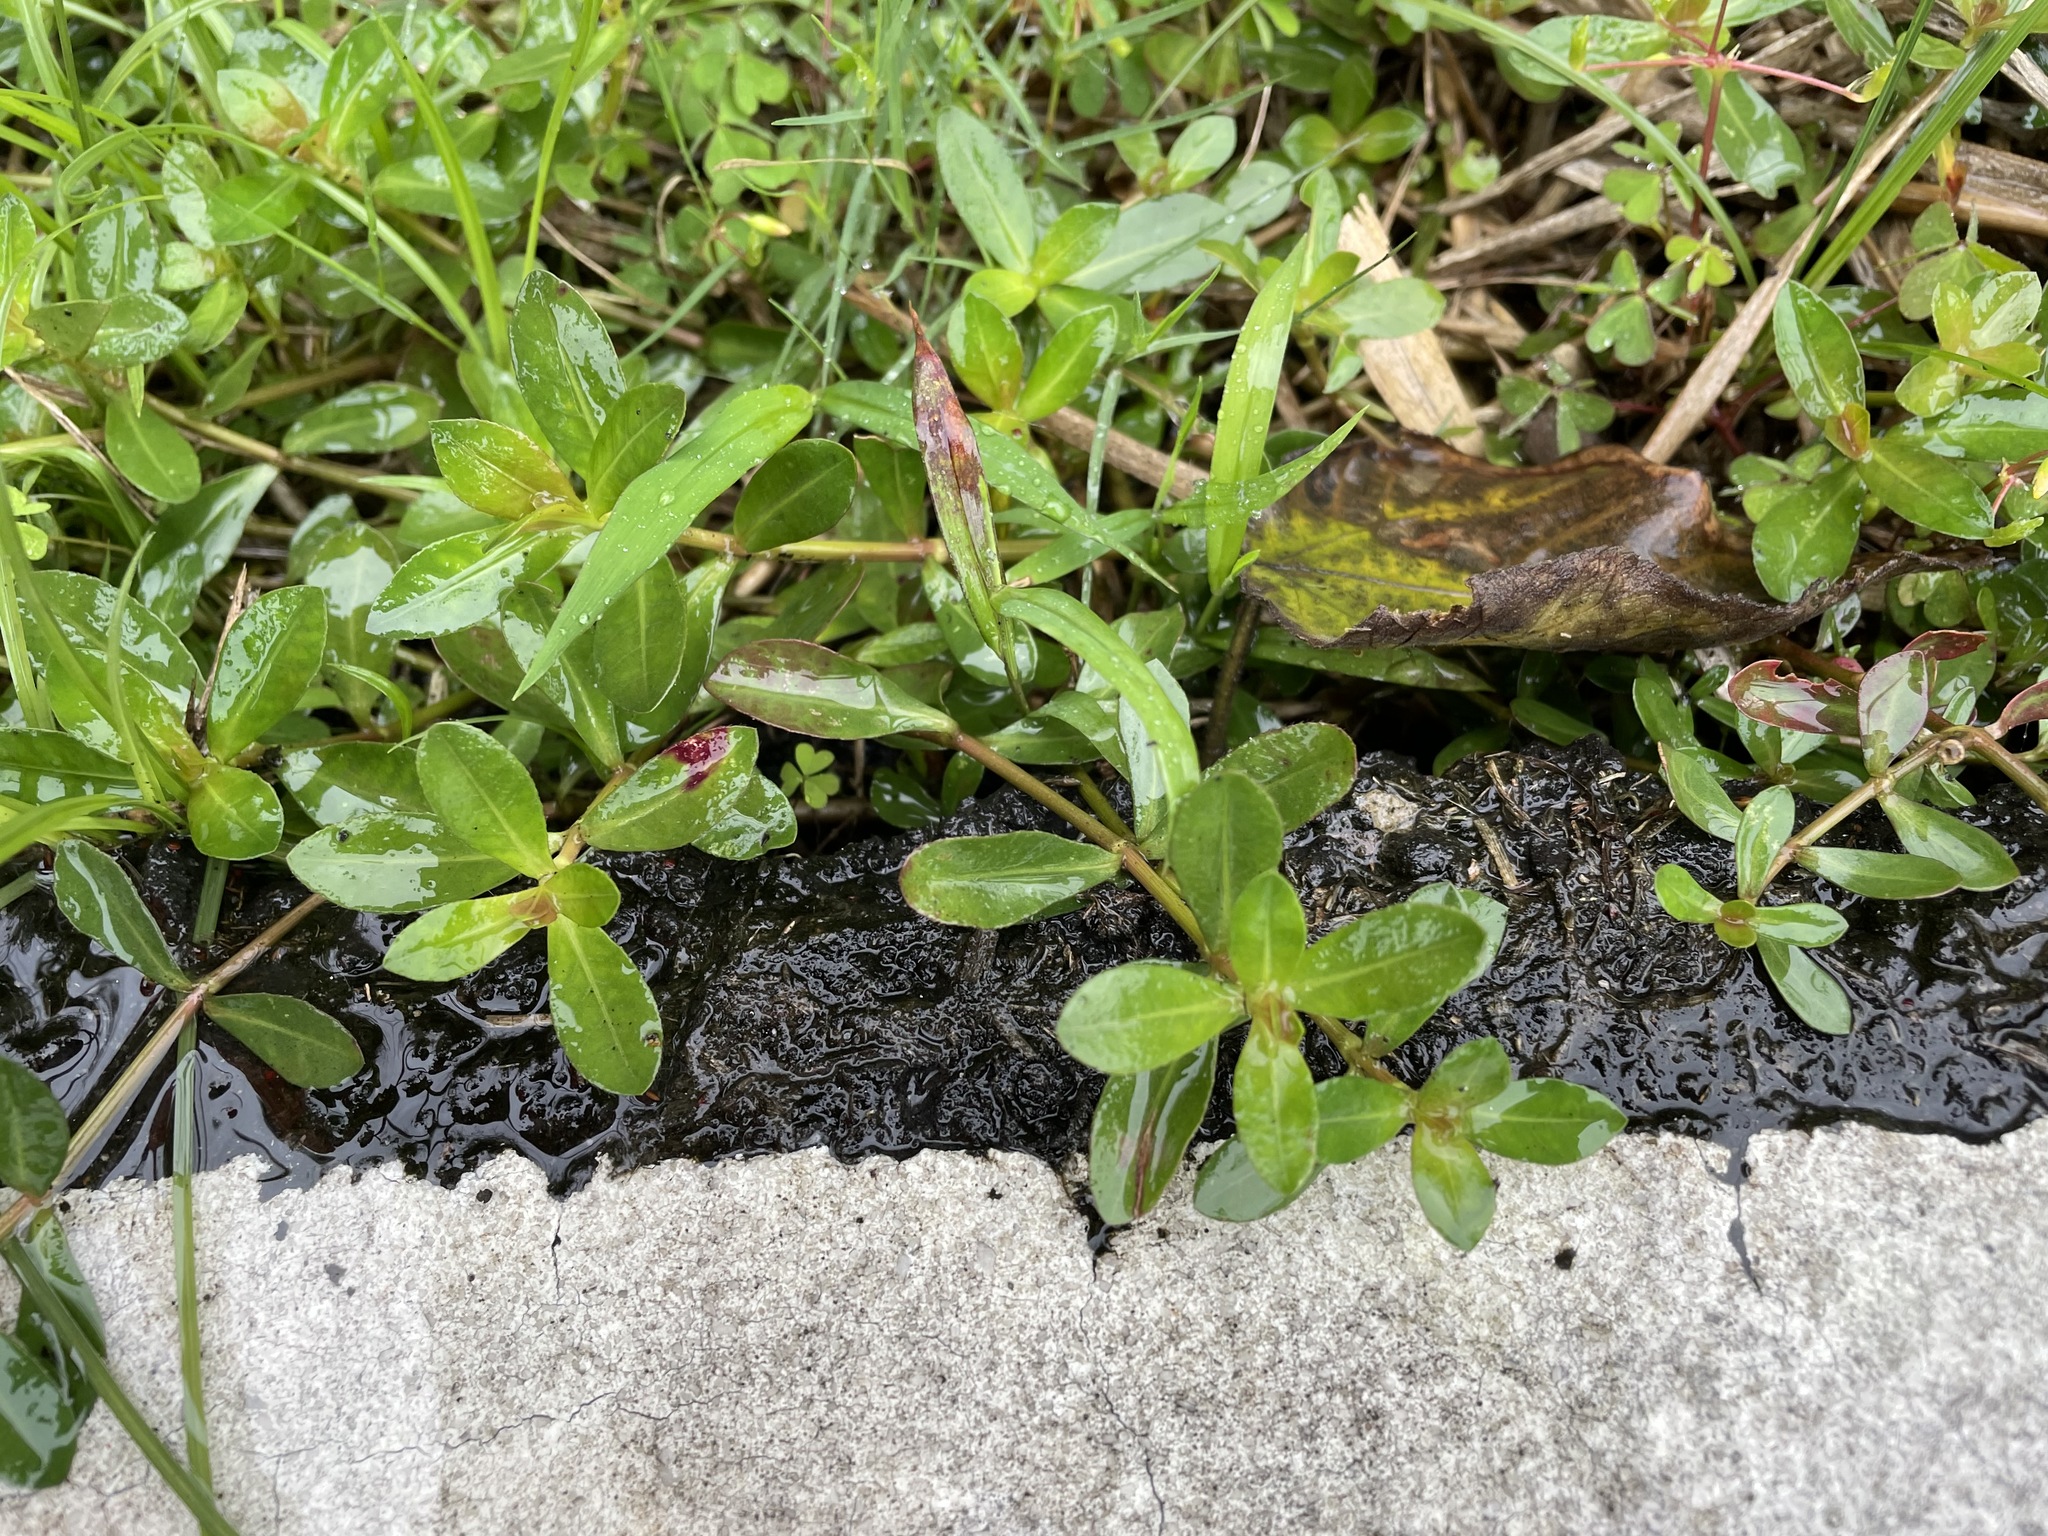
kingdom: Plantae
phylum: Tracheophyta
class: Magnoliopsida
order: Caryophyllales
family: Amaranthaceae
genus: Alternanthera
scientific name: Alternanthera philoxeroides
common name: Alligatorweed
